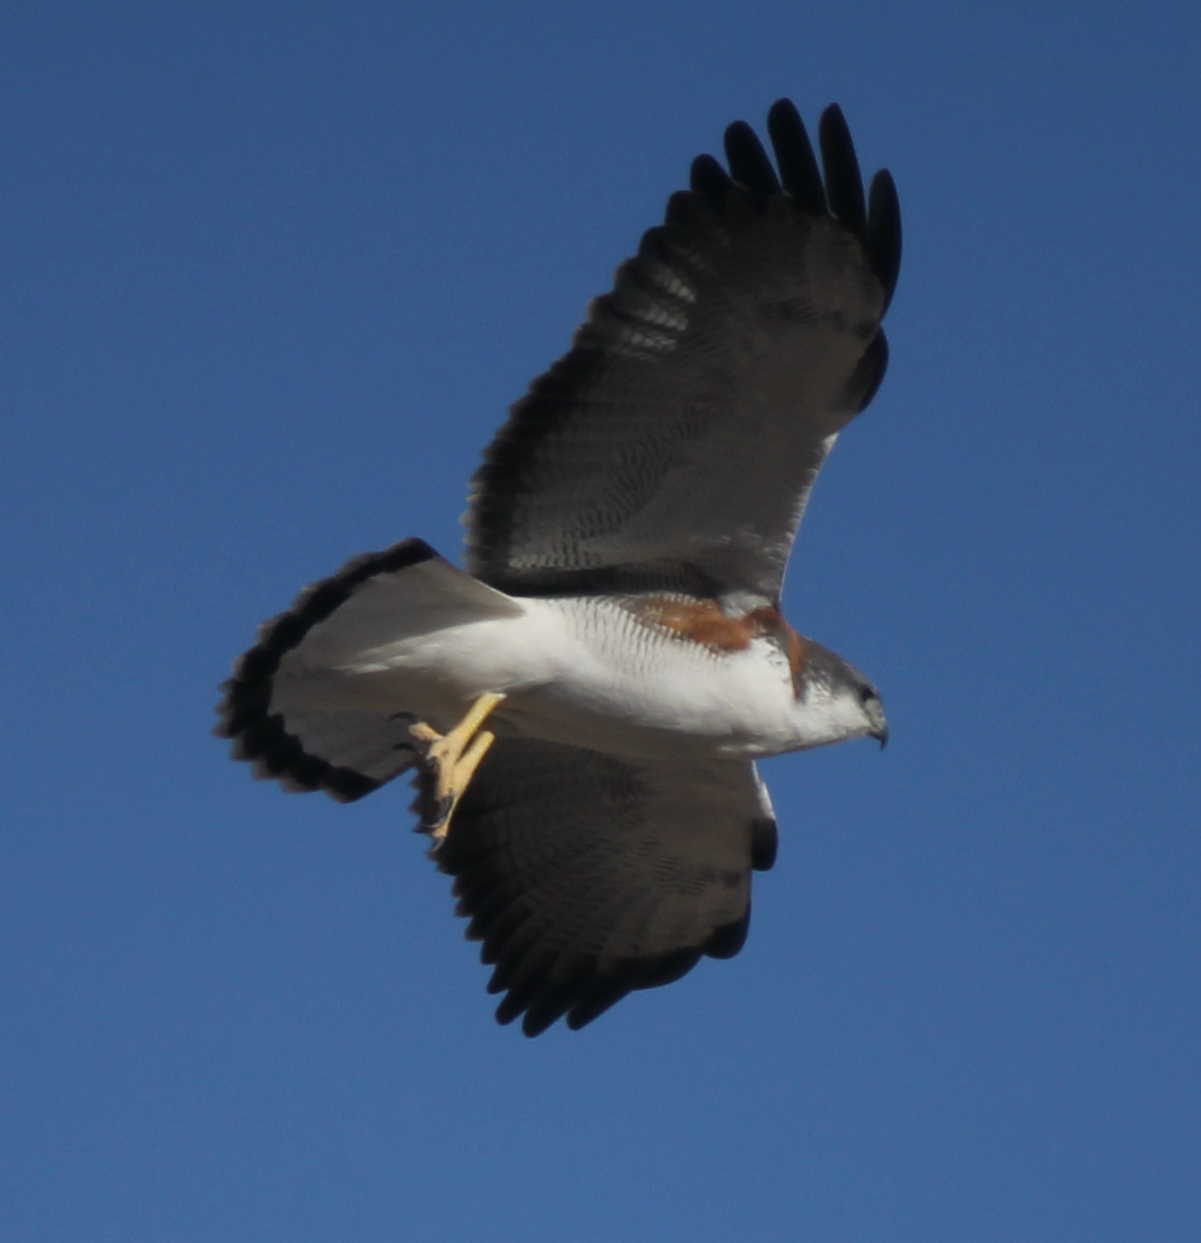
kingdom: Animalia
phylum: Chordata
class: Aves
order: Accipitriformes
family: Accipitridae
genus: Buteo
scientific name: Buteo polyosoma
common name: Variable hawk
